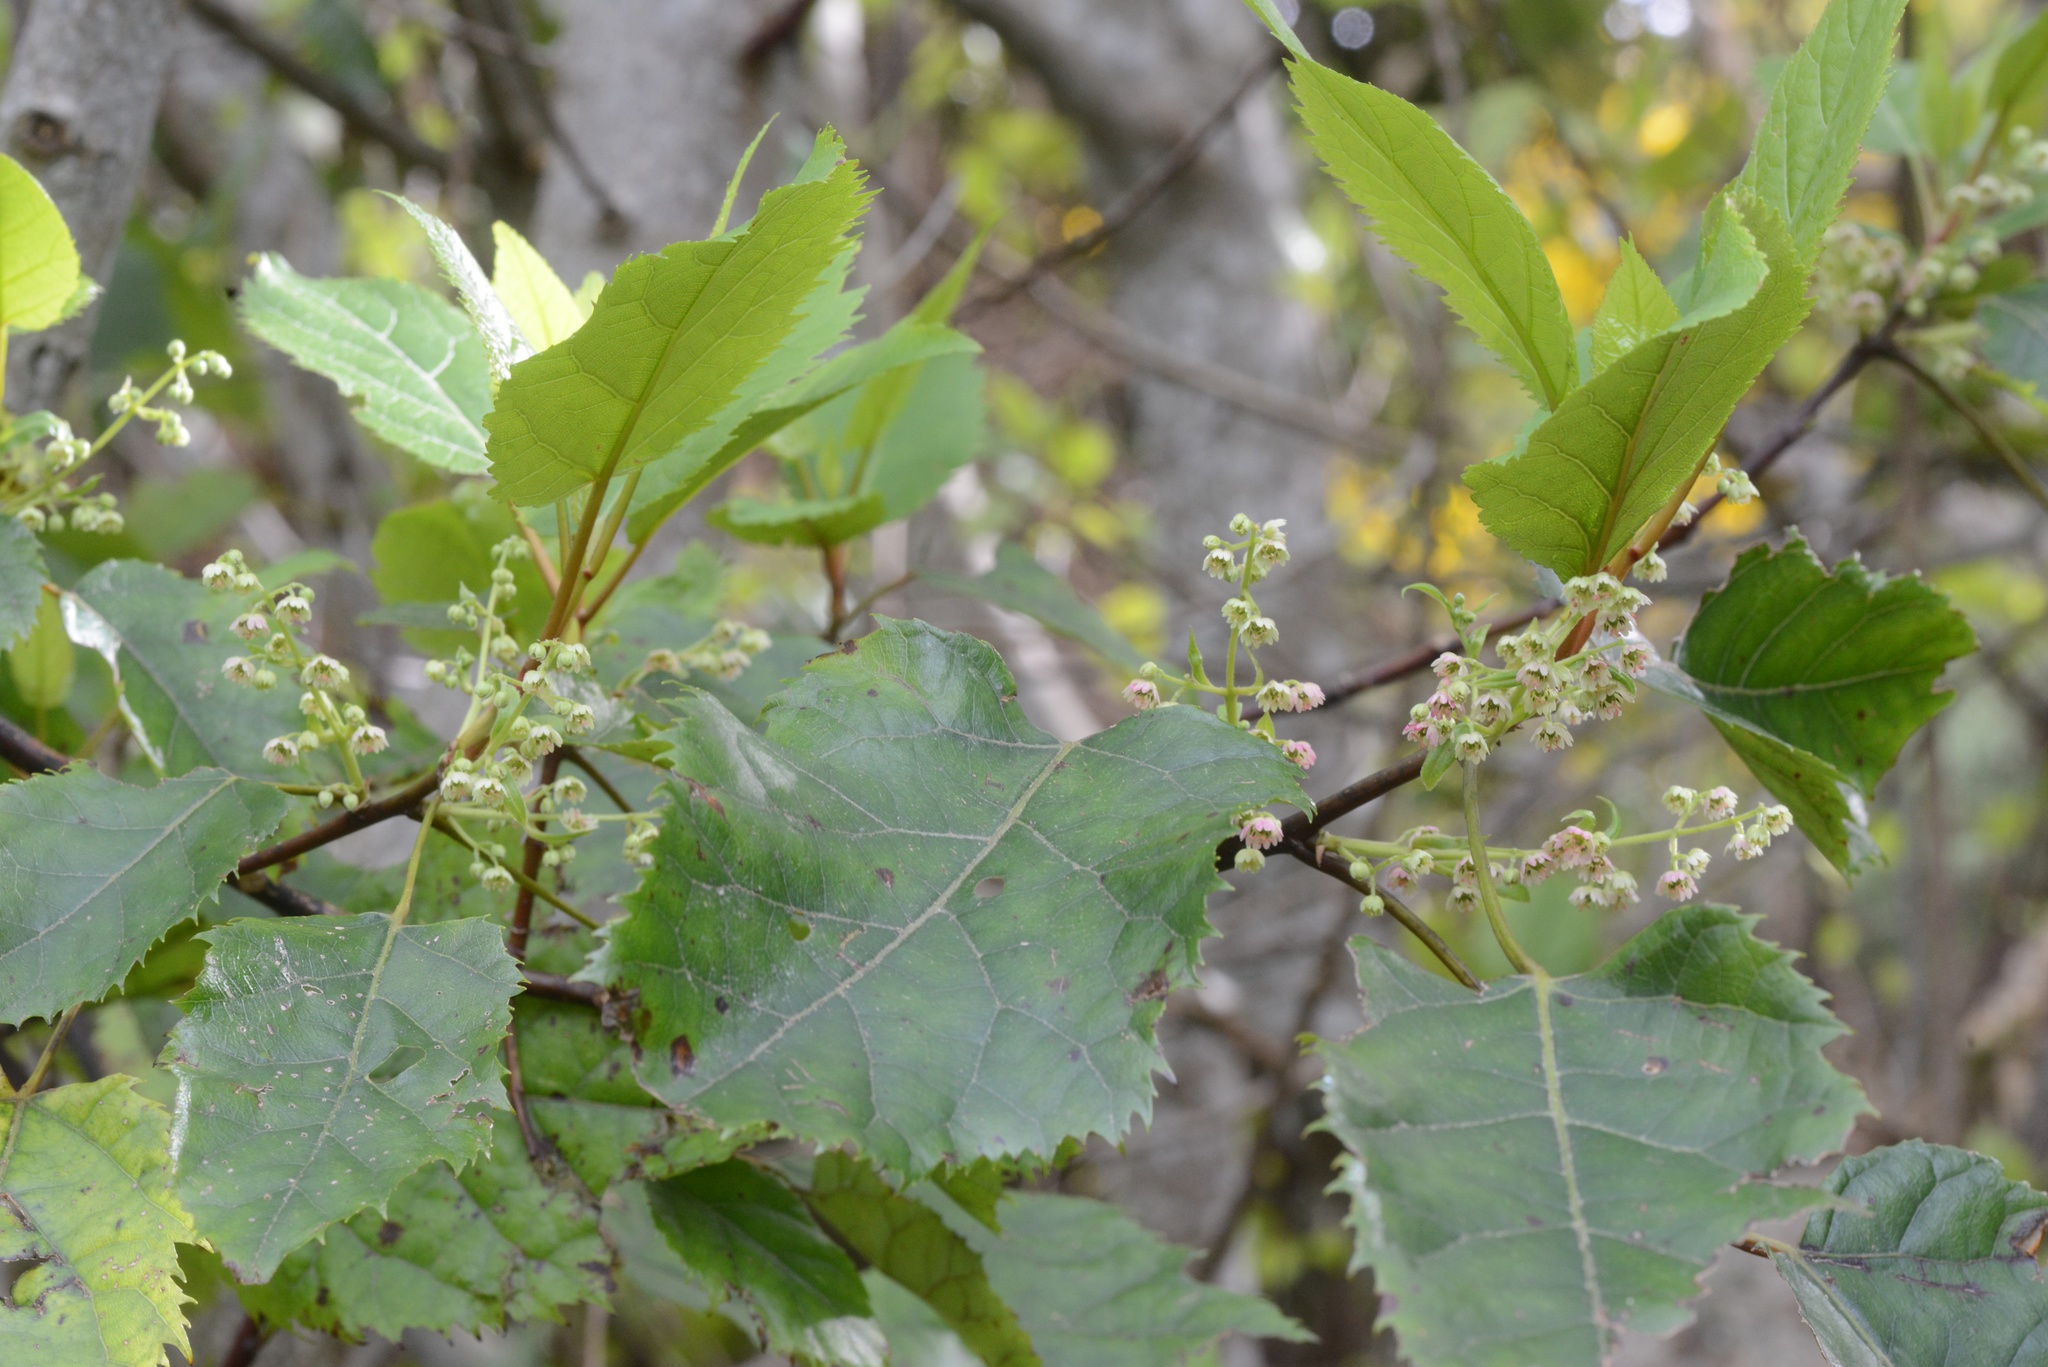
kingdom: Plantae
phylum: Tracheophyta
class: Magnoliopsida
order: Oxalidales
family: Elaeocarpaceae
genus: Aristotelia
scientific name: Aristotelia serrata
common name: New zealand wineberry
